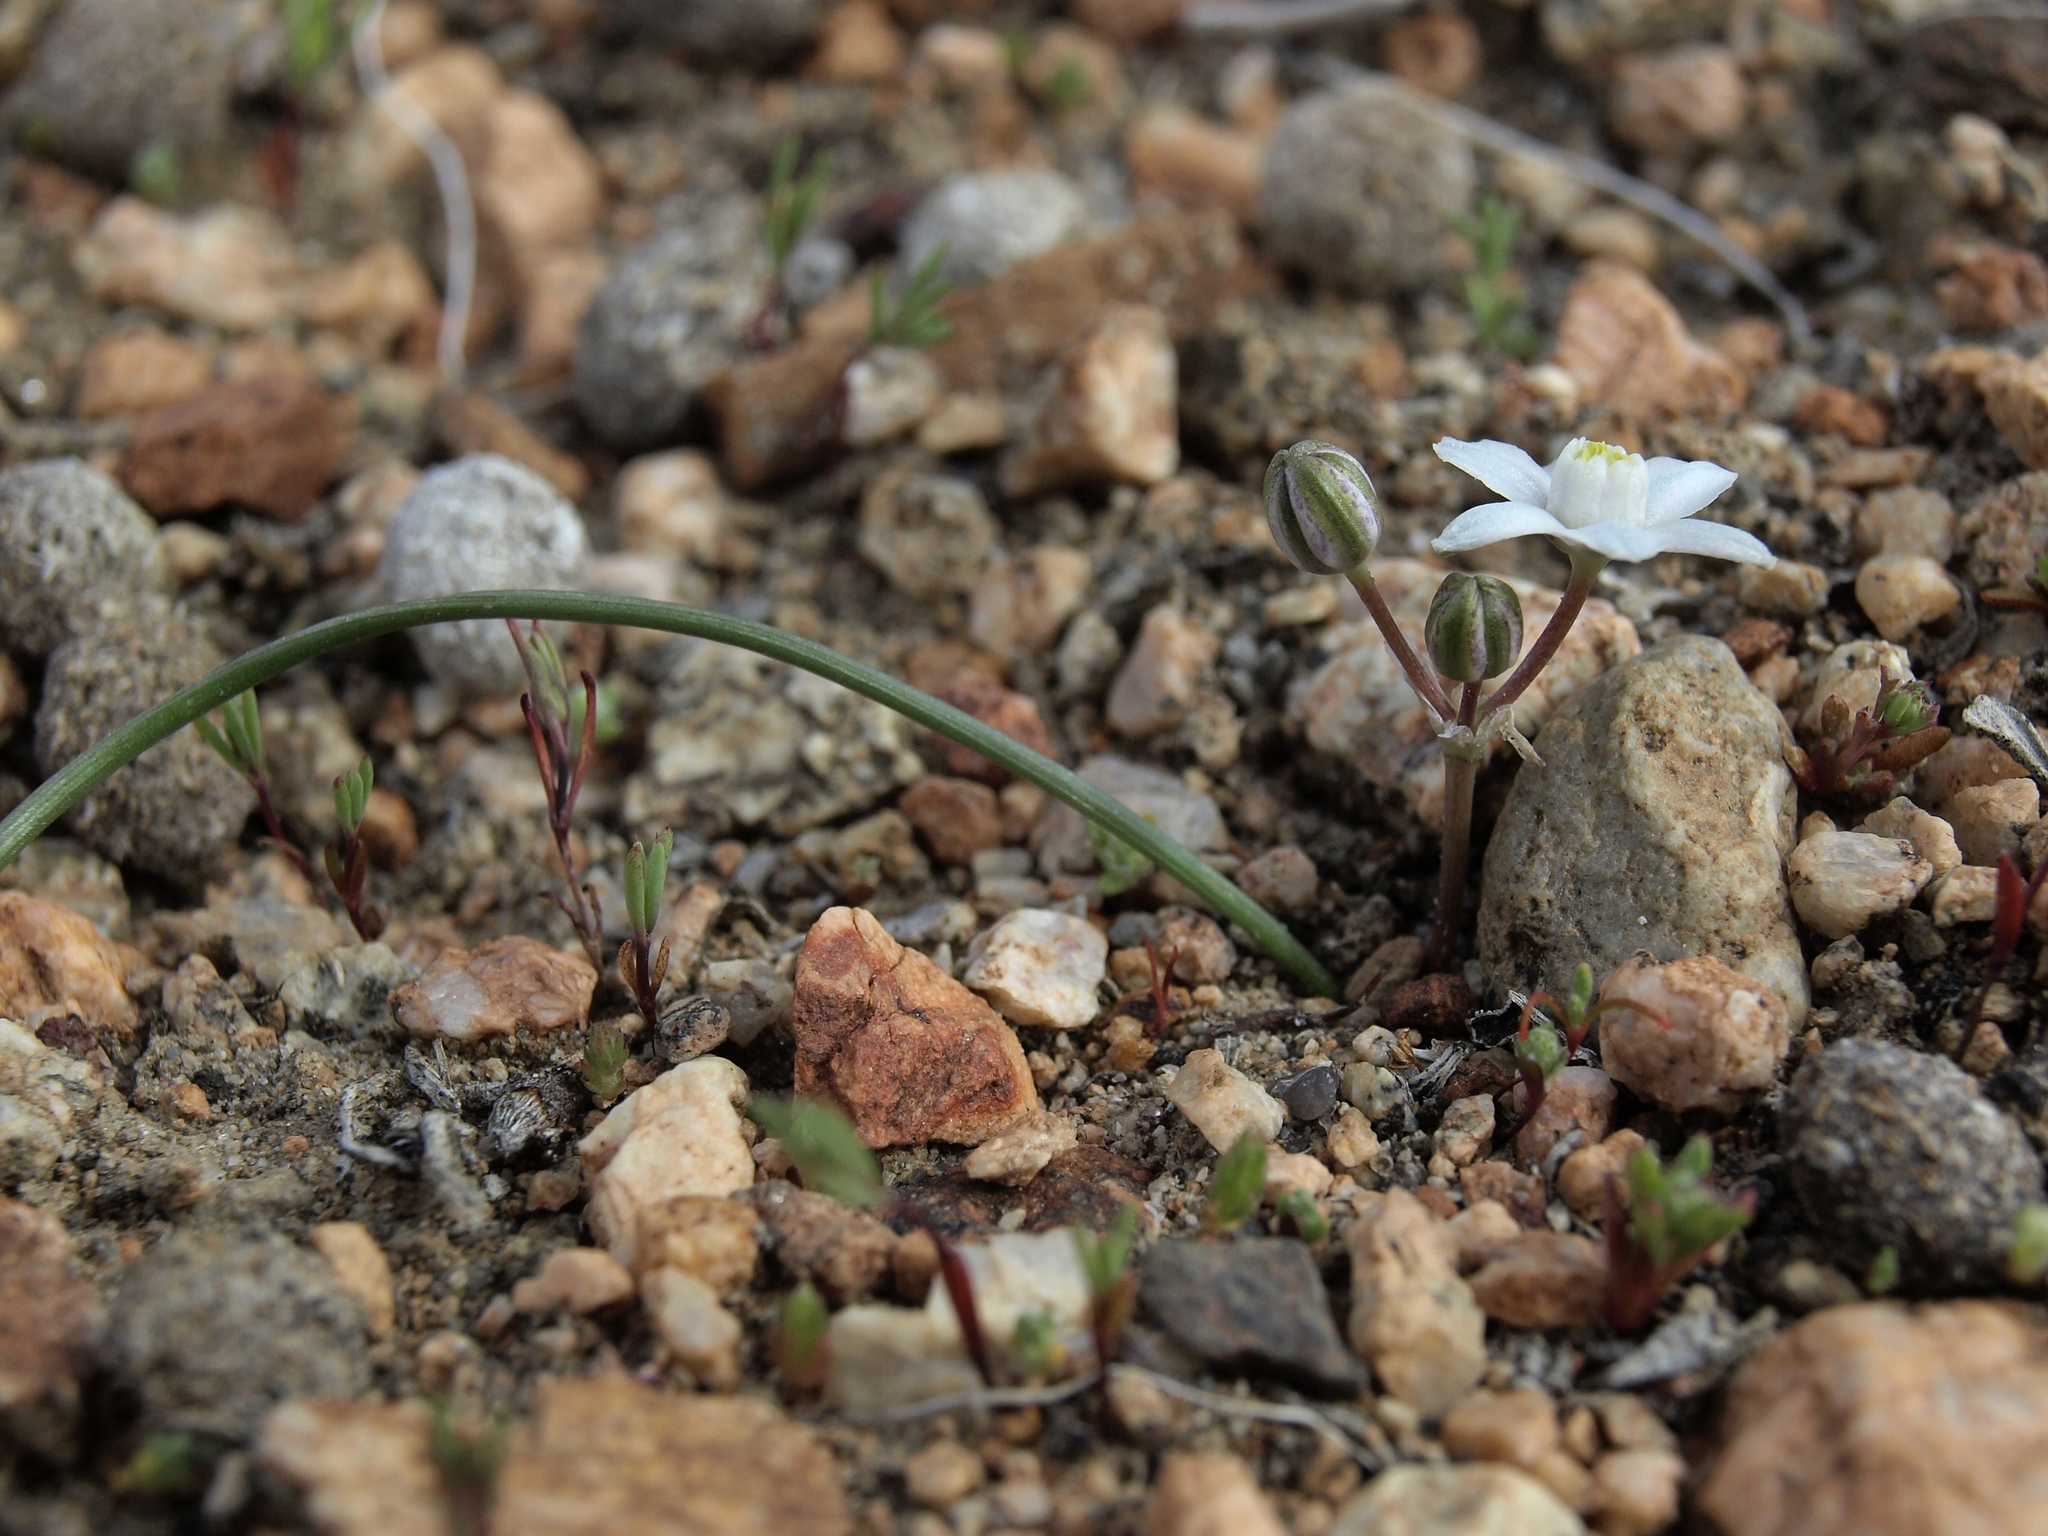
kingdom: Plantae
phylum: Tracheophyta
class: Liliopsida
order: Asparagales
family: Asparagaceae
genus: Muilla
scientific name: Muilla coronata
